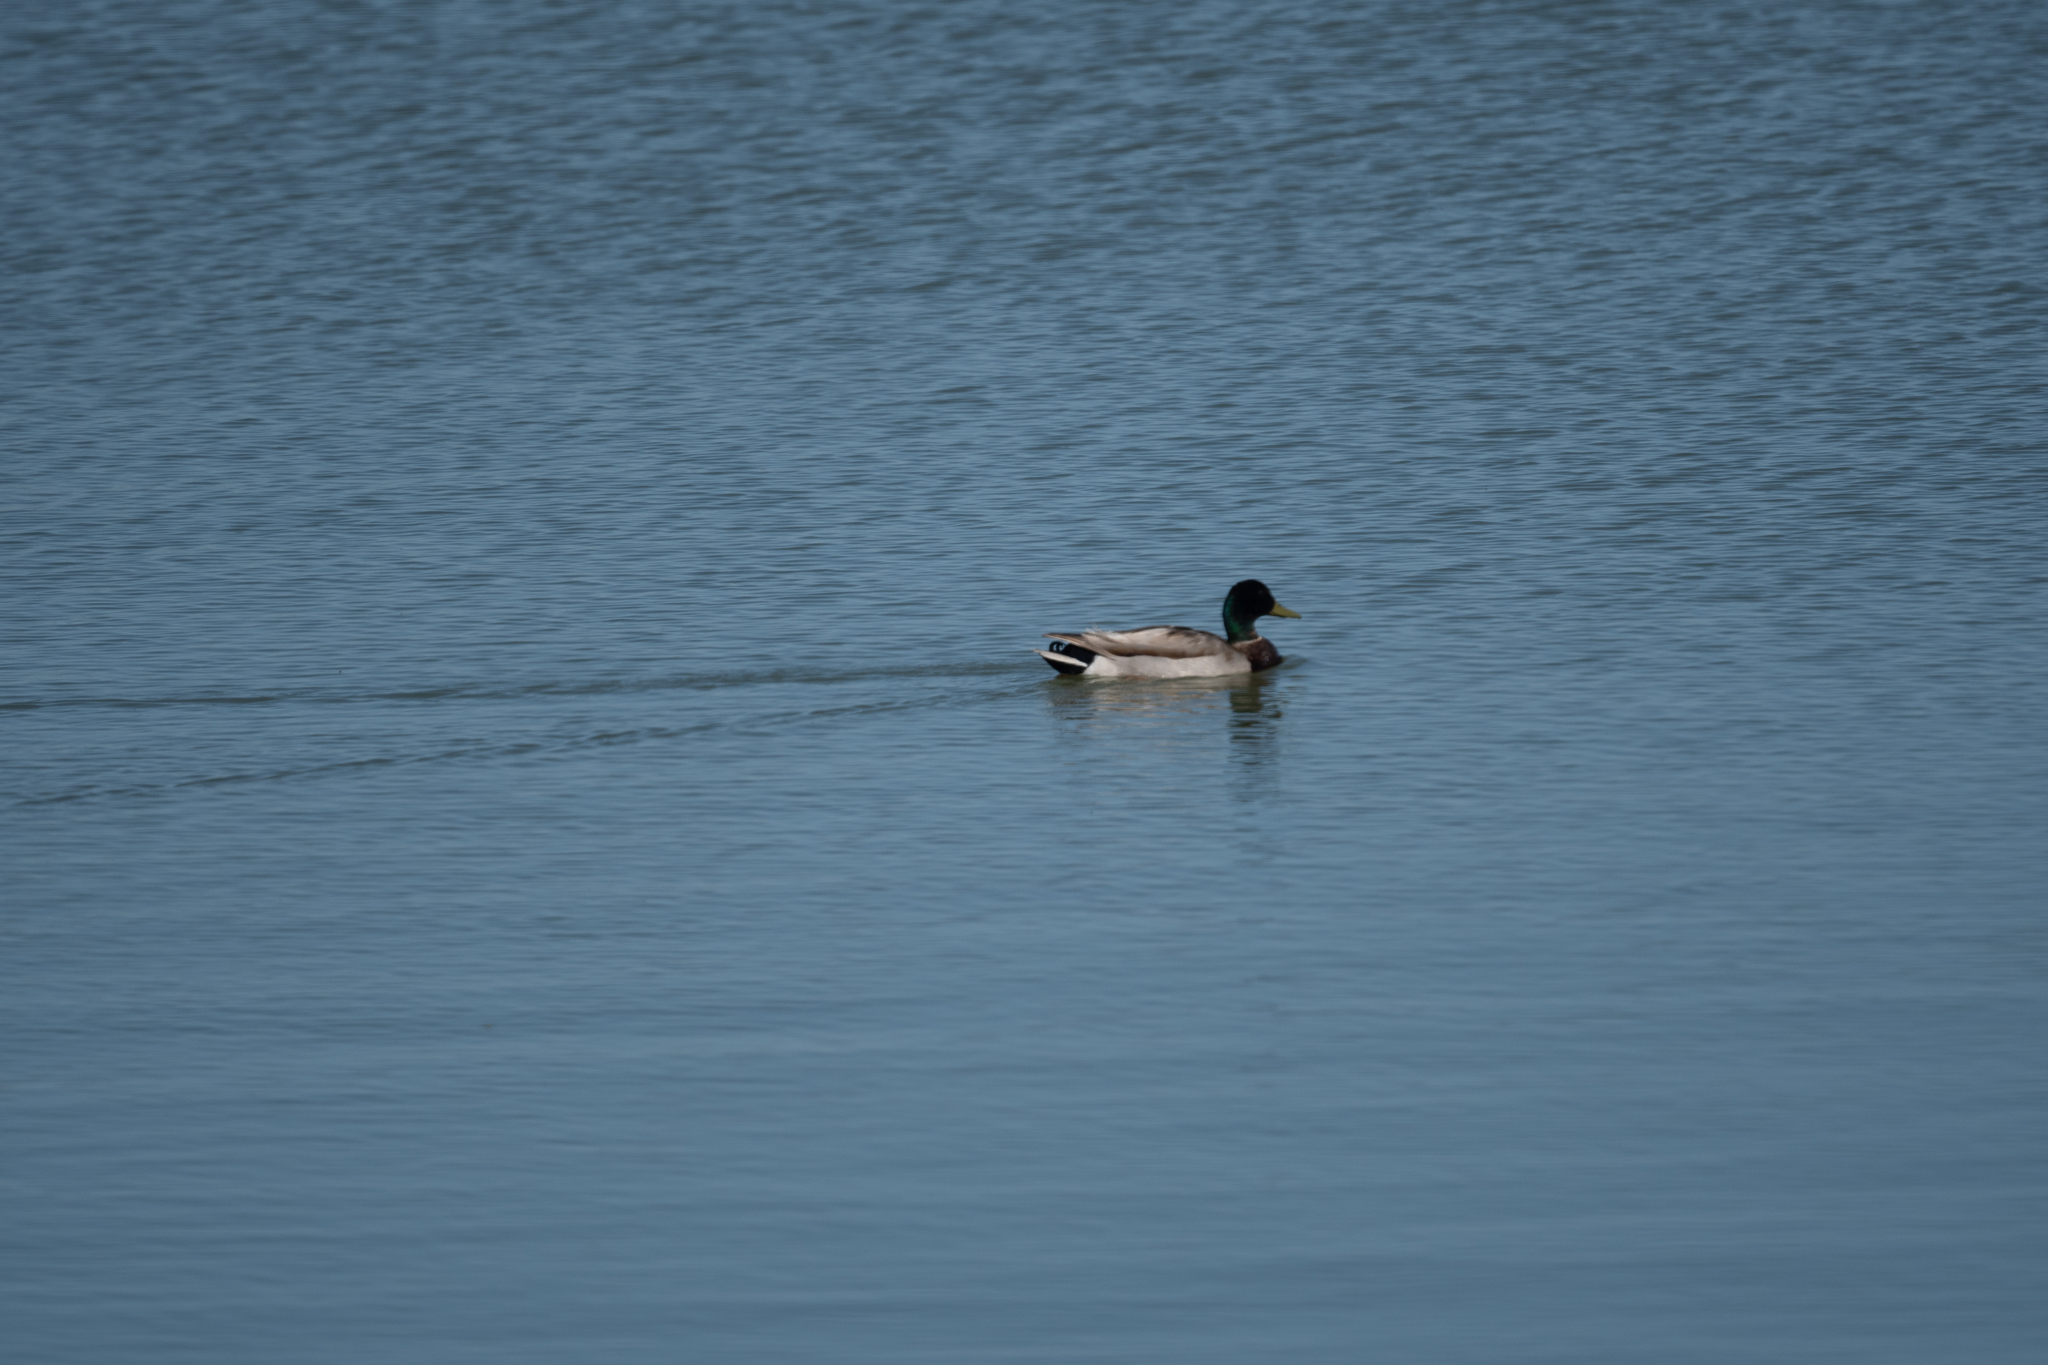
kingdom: Animalia
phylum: Chordata
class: Aves
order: Anseriformes
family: Anatidae
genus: Anas
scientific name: Anas platyrhynchos
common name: Mallard
